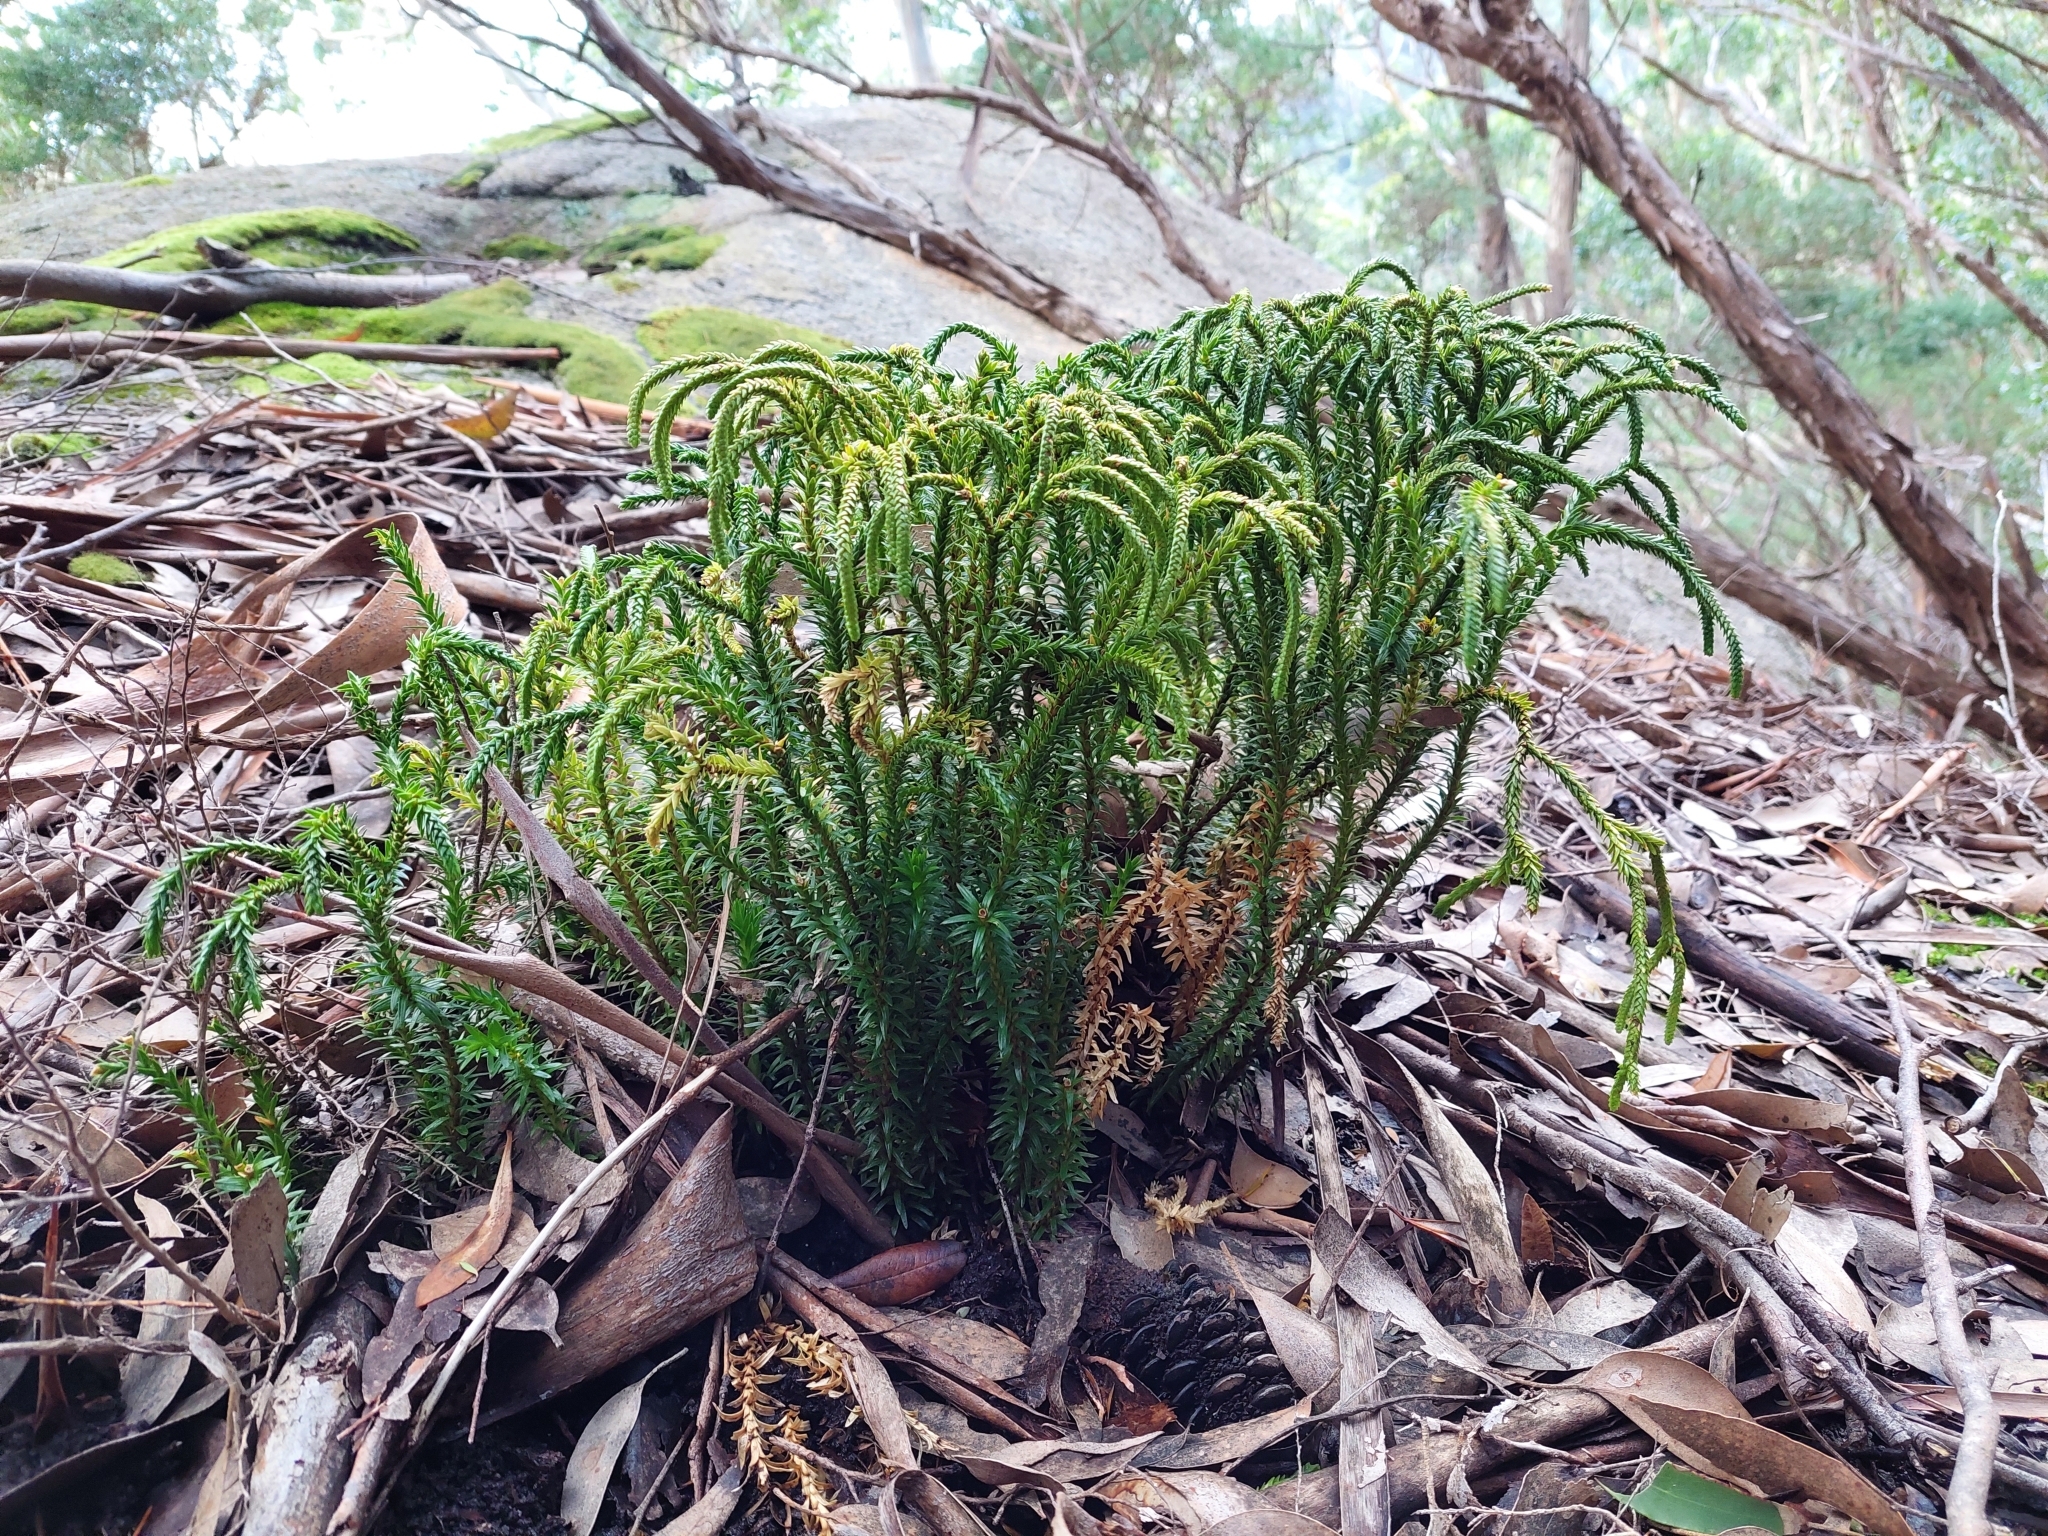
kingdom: Plantae
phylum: Tracheophyta
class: Lycopodiopsida
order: Lycopodiales
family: Lycopodiaceae
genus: Phlegmariurus
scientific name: Phlegmariurus varius
